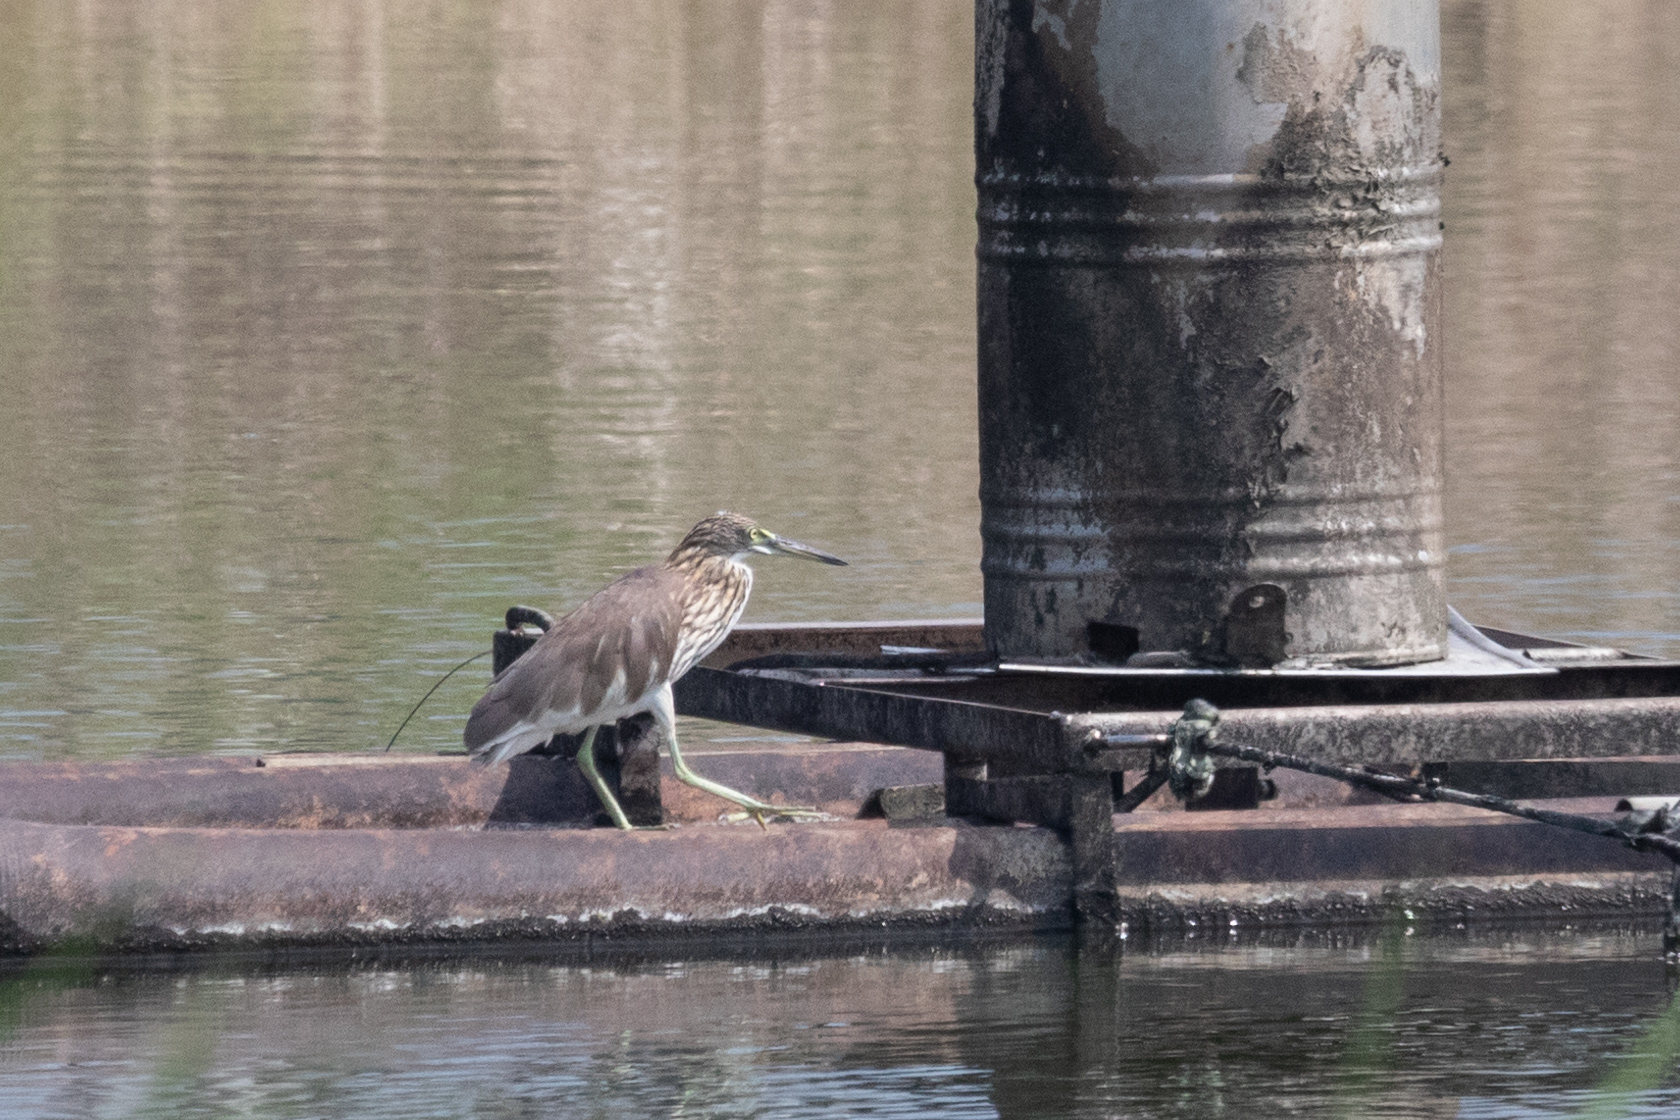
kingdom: Animalia
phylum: Chordata
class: Aves
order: Pelecaniformes
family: Ardeidae
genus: Ardeola
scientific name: Ardeola bacchus
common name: Chinese pond heron
